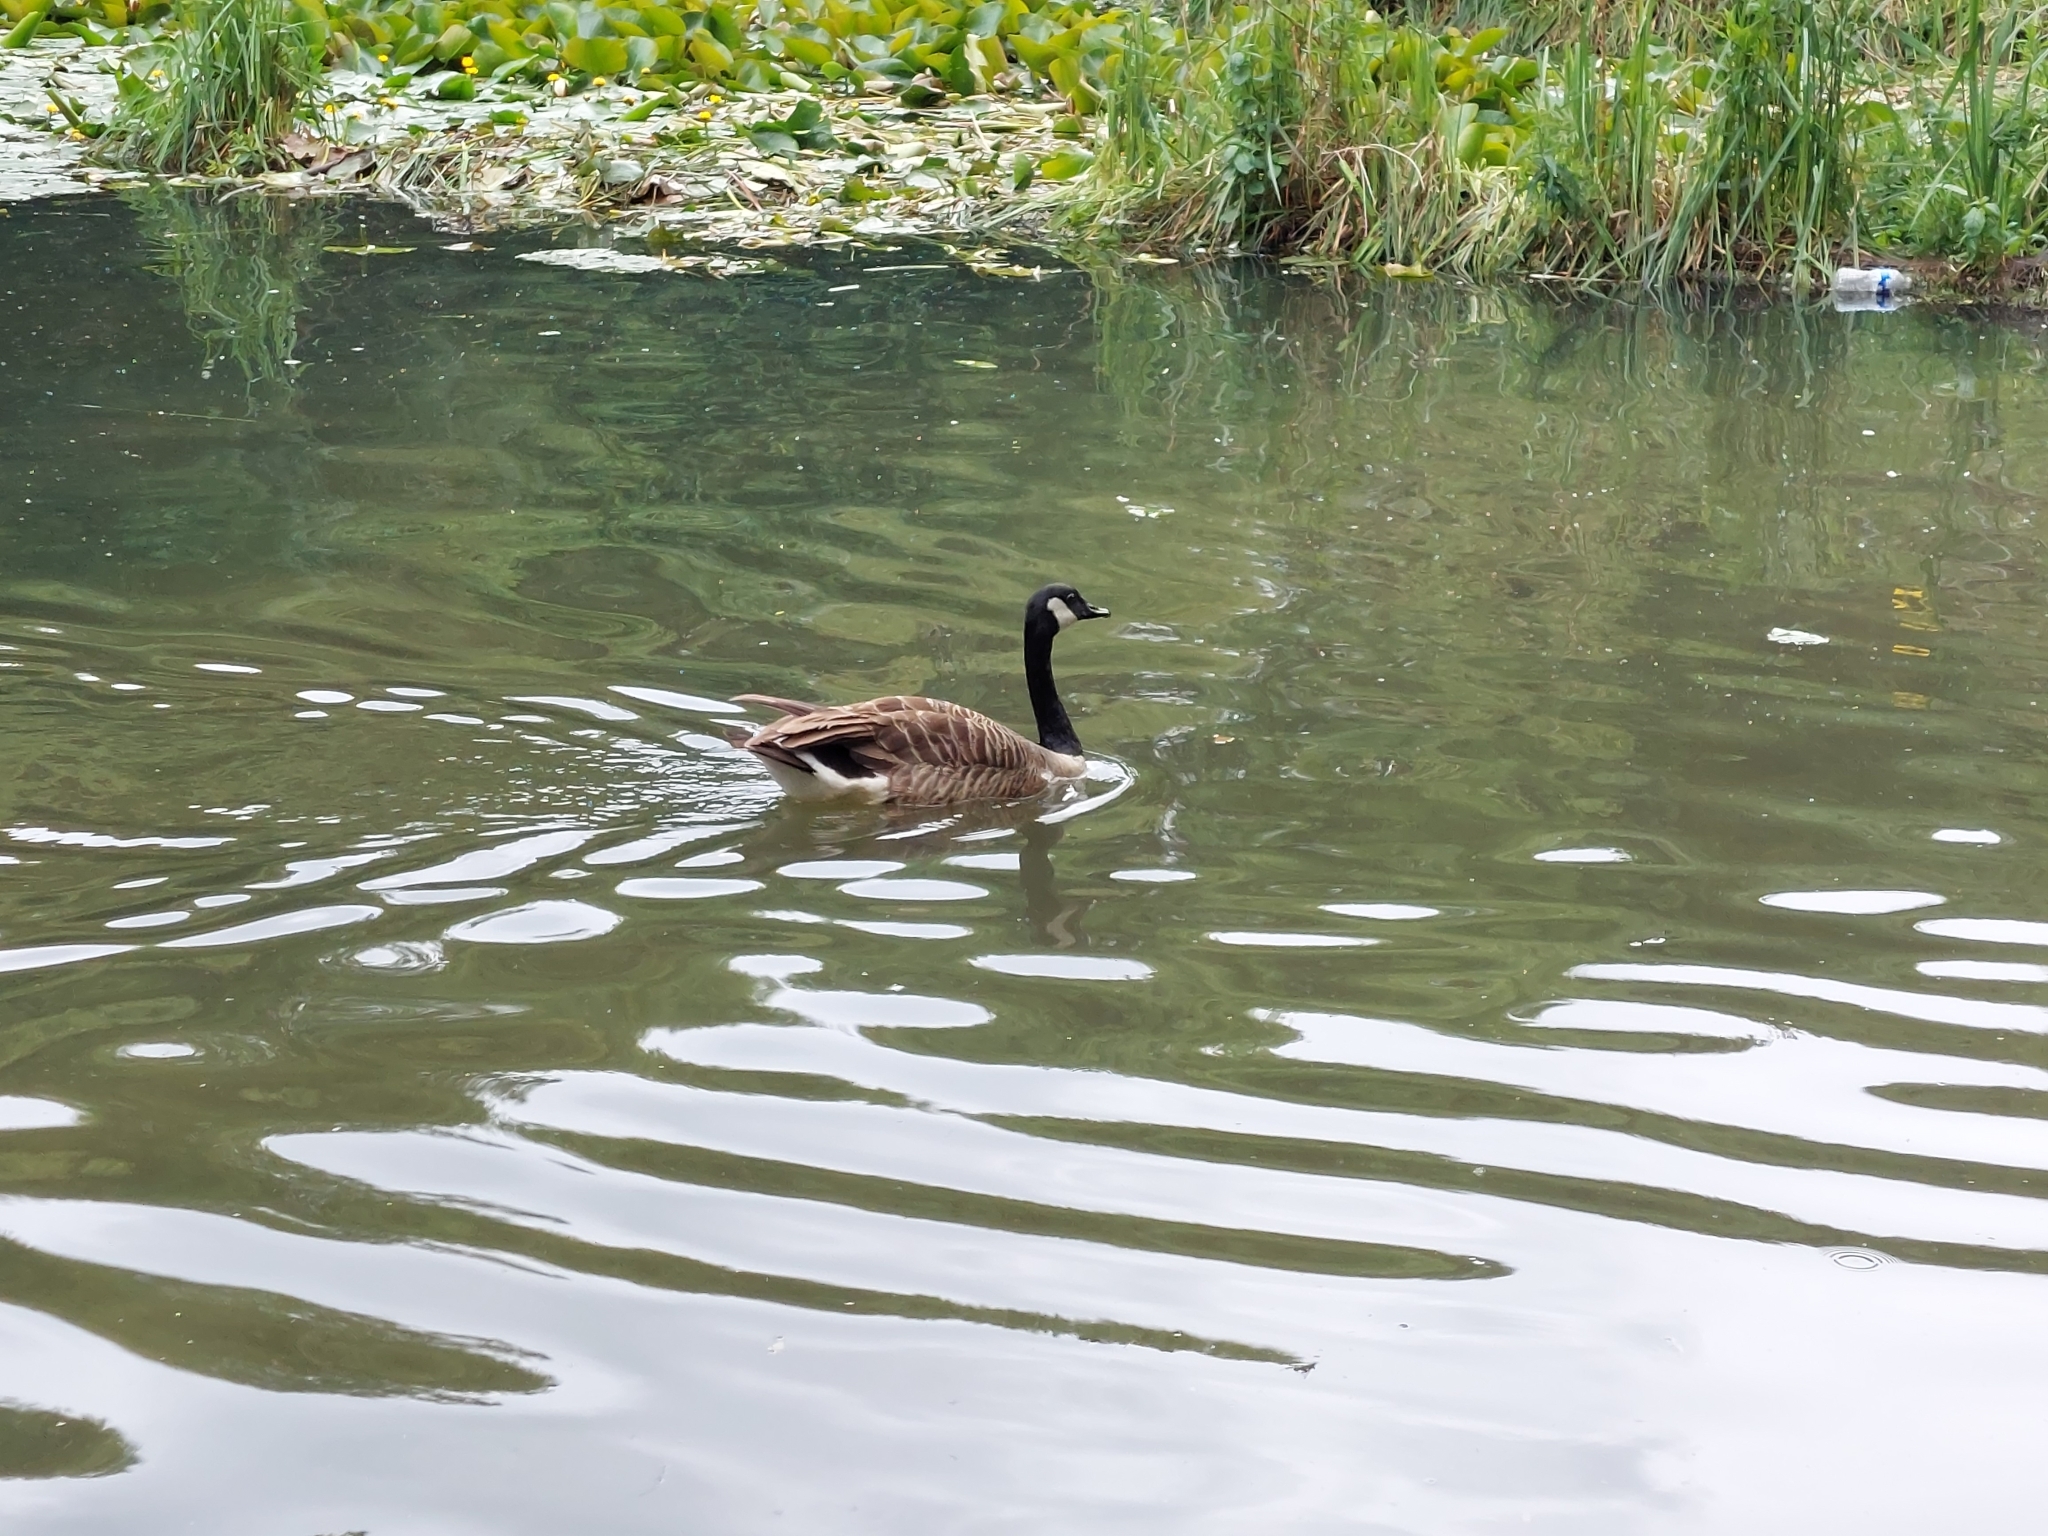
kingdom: Animalia
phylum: Chordata
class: Aves
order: Anseriformes
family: Anatidae
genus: Branta
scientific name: Branta canadensis
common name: Canada goose
